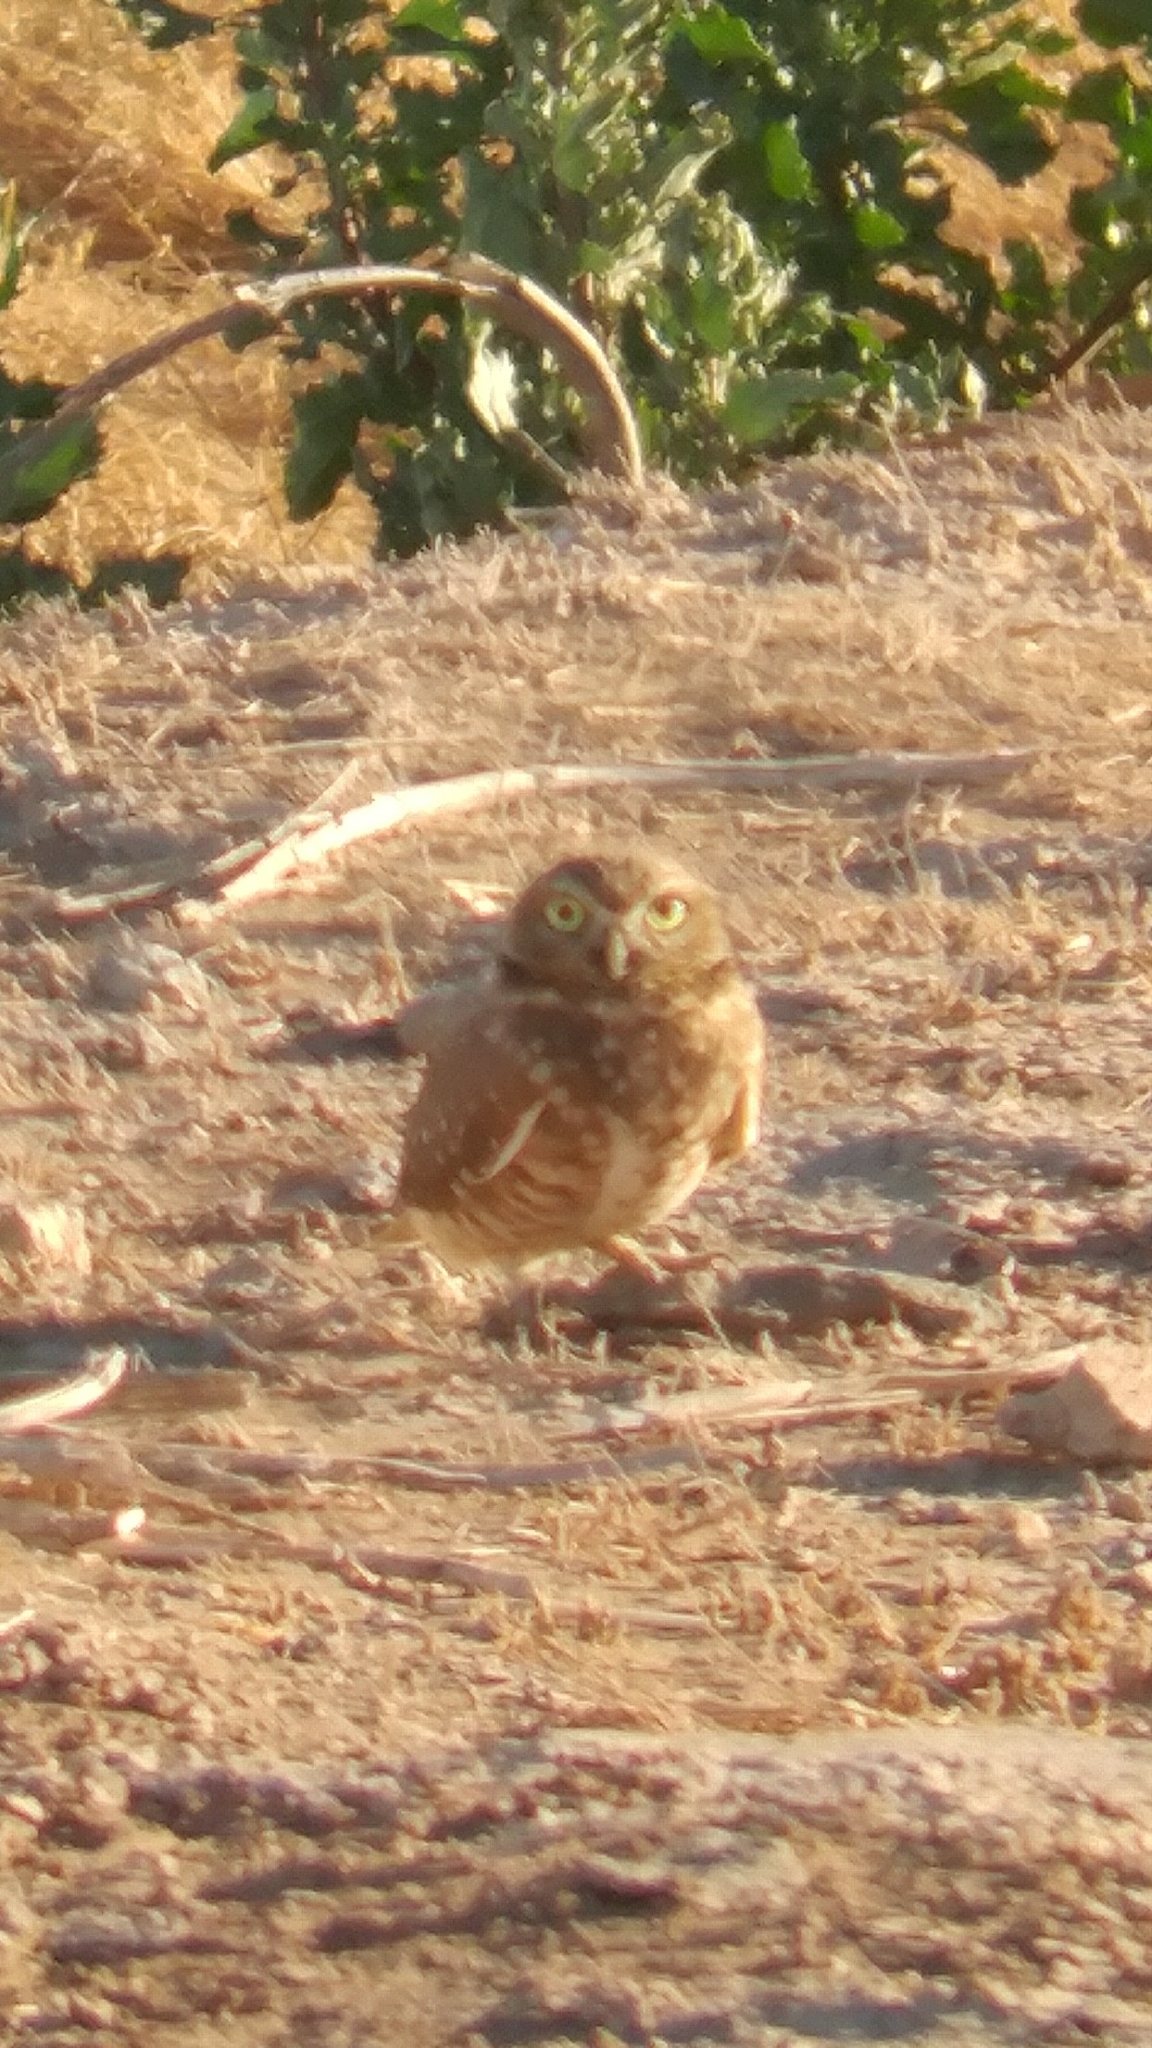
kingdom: Animalia
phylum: Chordata
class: Aves
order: Strigiformes
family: Strigidae
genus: Athene
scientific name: Athene cunicularia
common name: Burrowing owl
